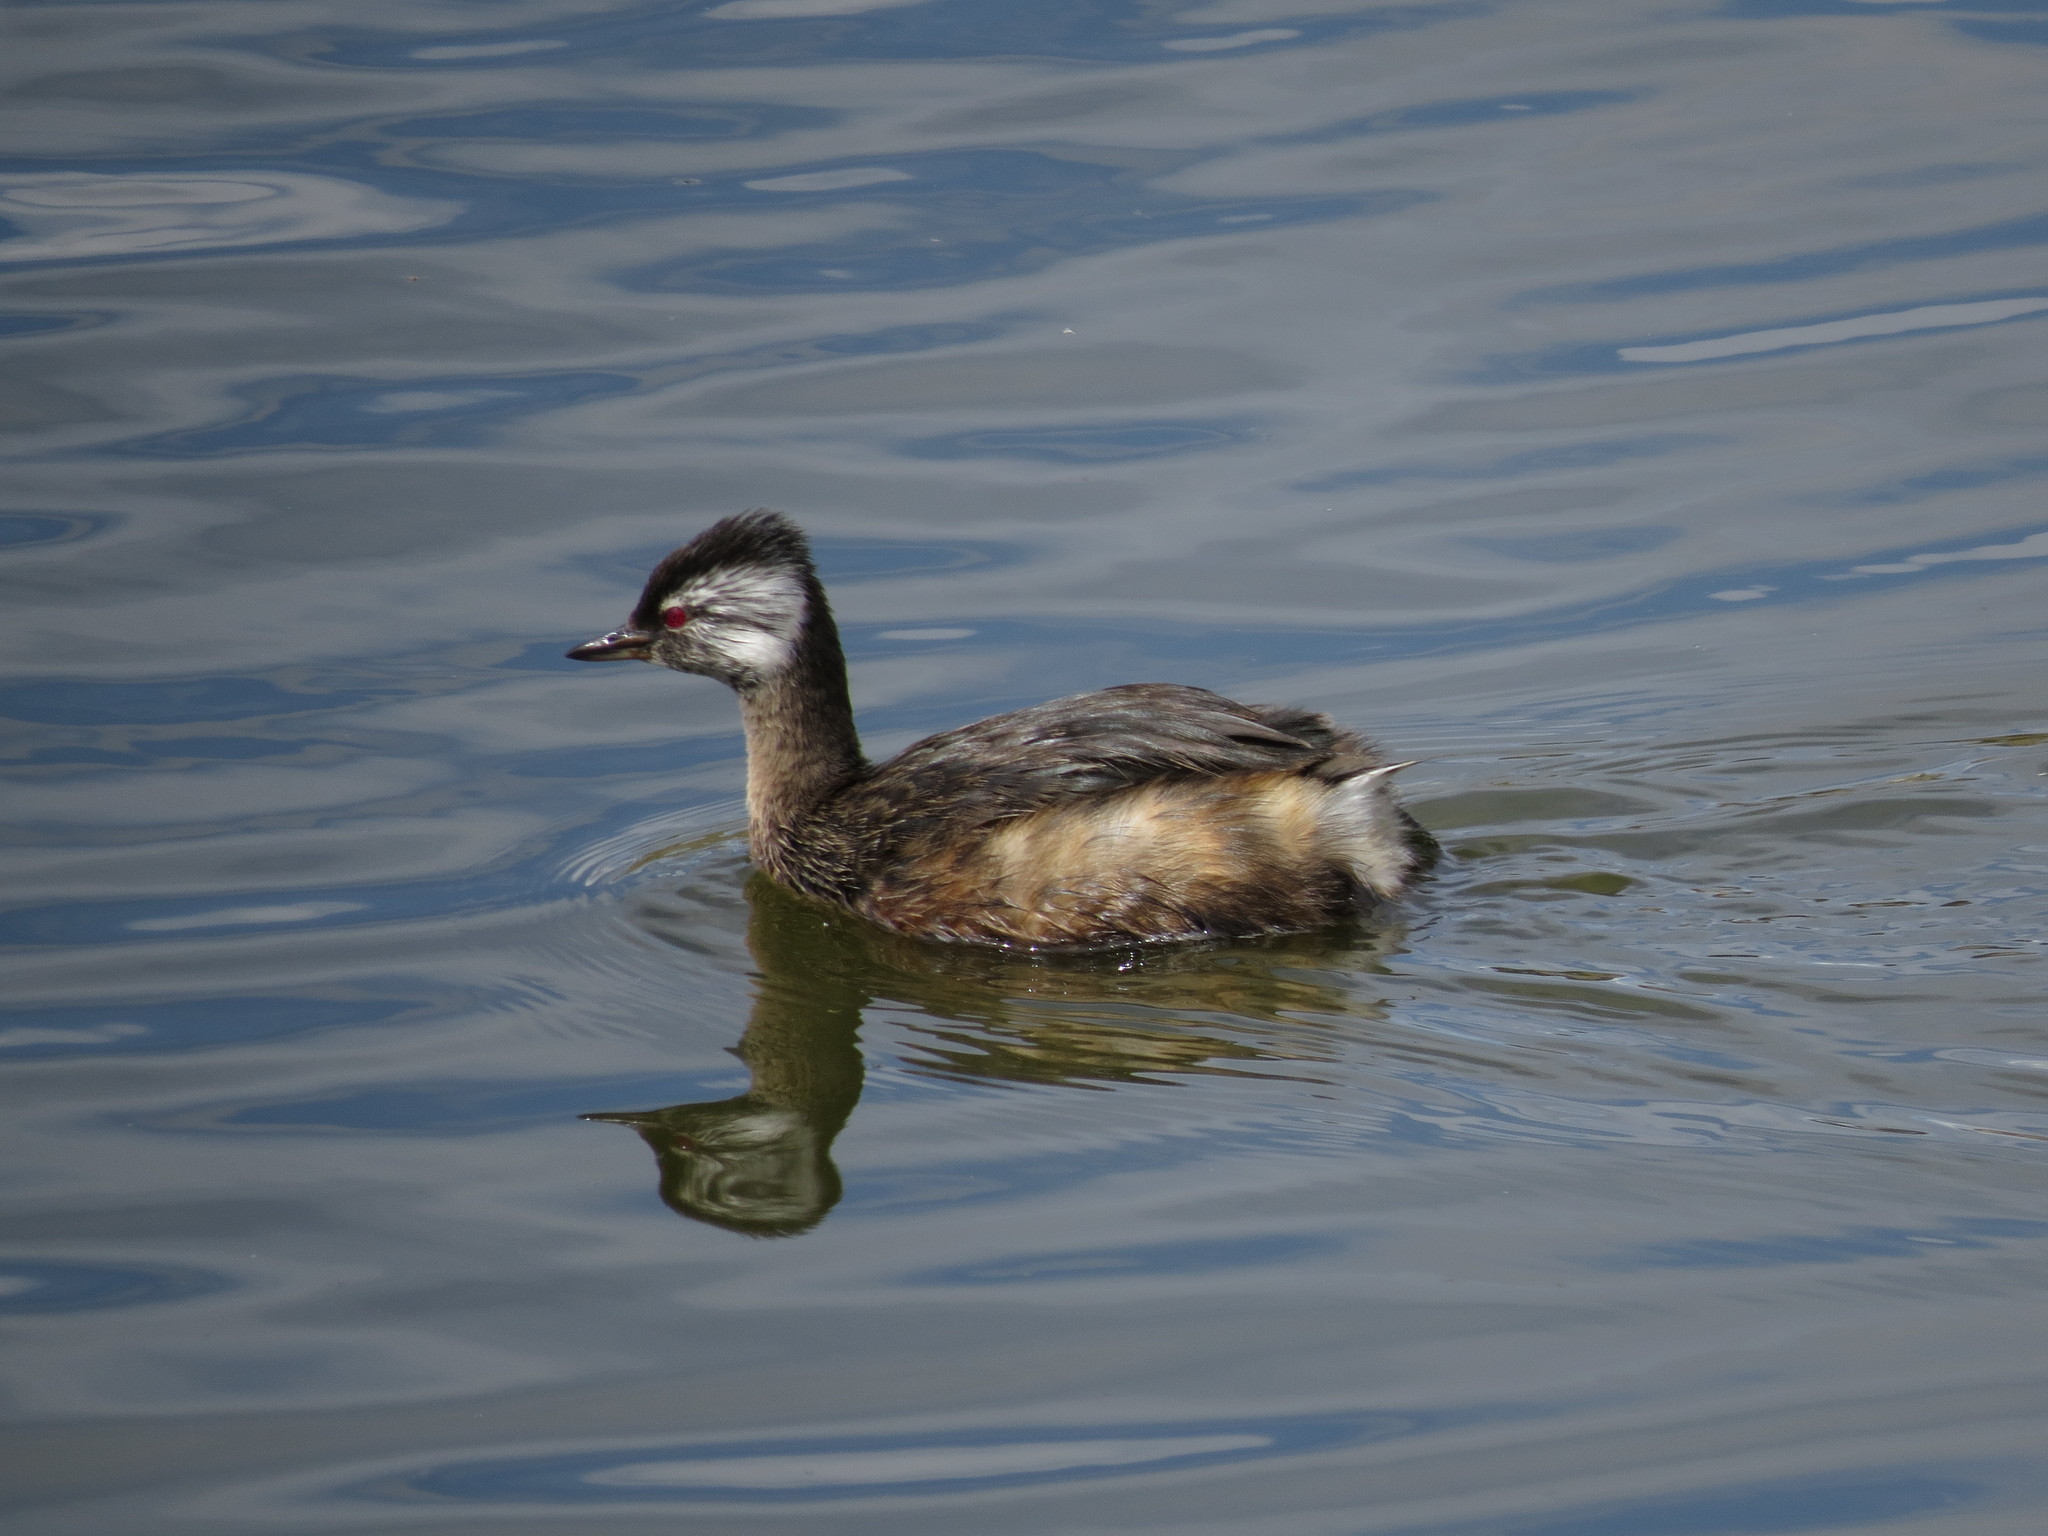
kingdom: Animalia
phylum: Chordata
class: Aves
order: Podicipediformes
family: Podicipedidae
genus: Rollandia
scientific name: Rollandia rolland
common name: White-tufted grebe
